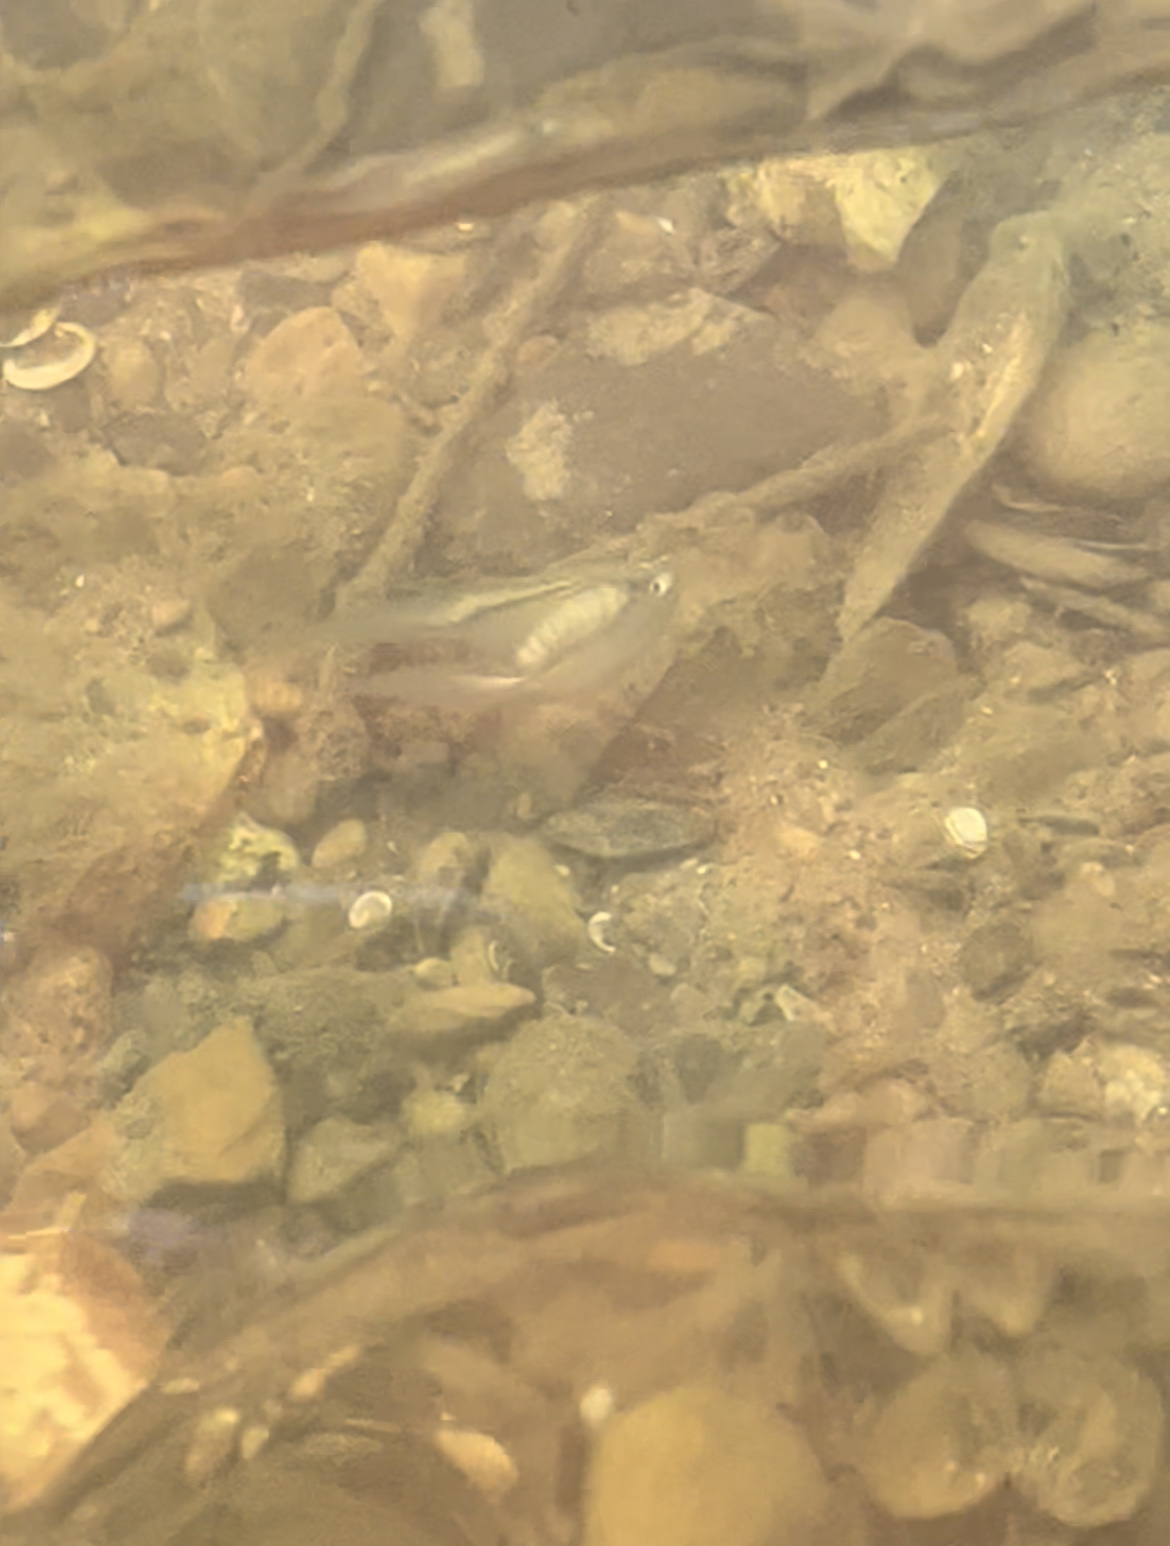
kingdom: Animalia
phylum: Mollusca
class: Bivalvia
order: Unionida
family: Unionidae
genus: Lampsilis
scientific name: Lampsilis cardium
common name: Plain pocketbook
